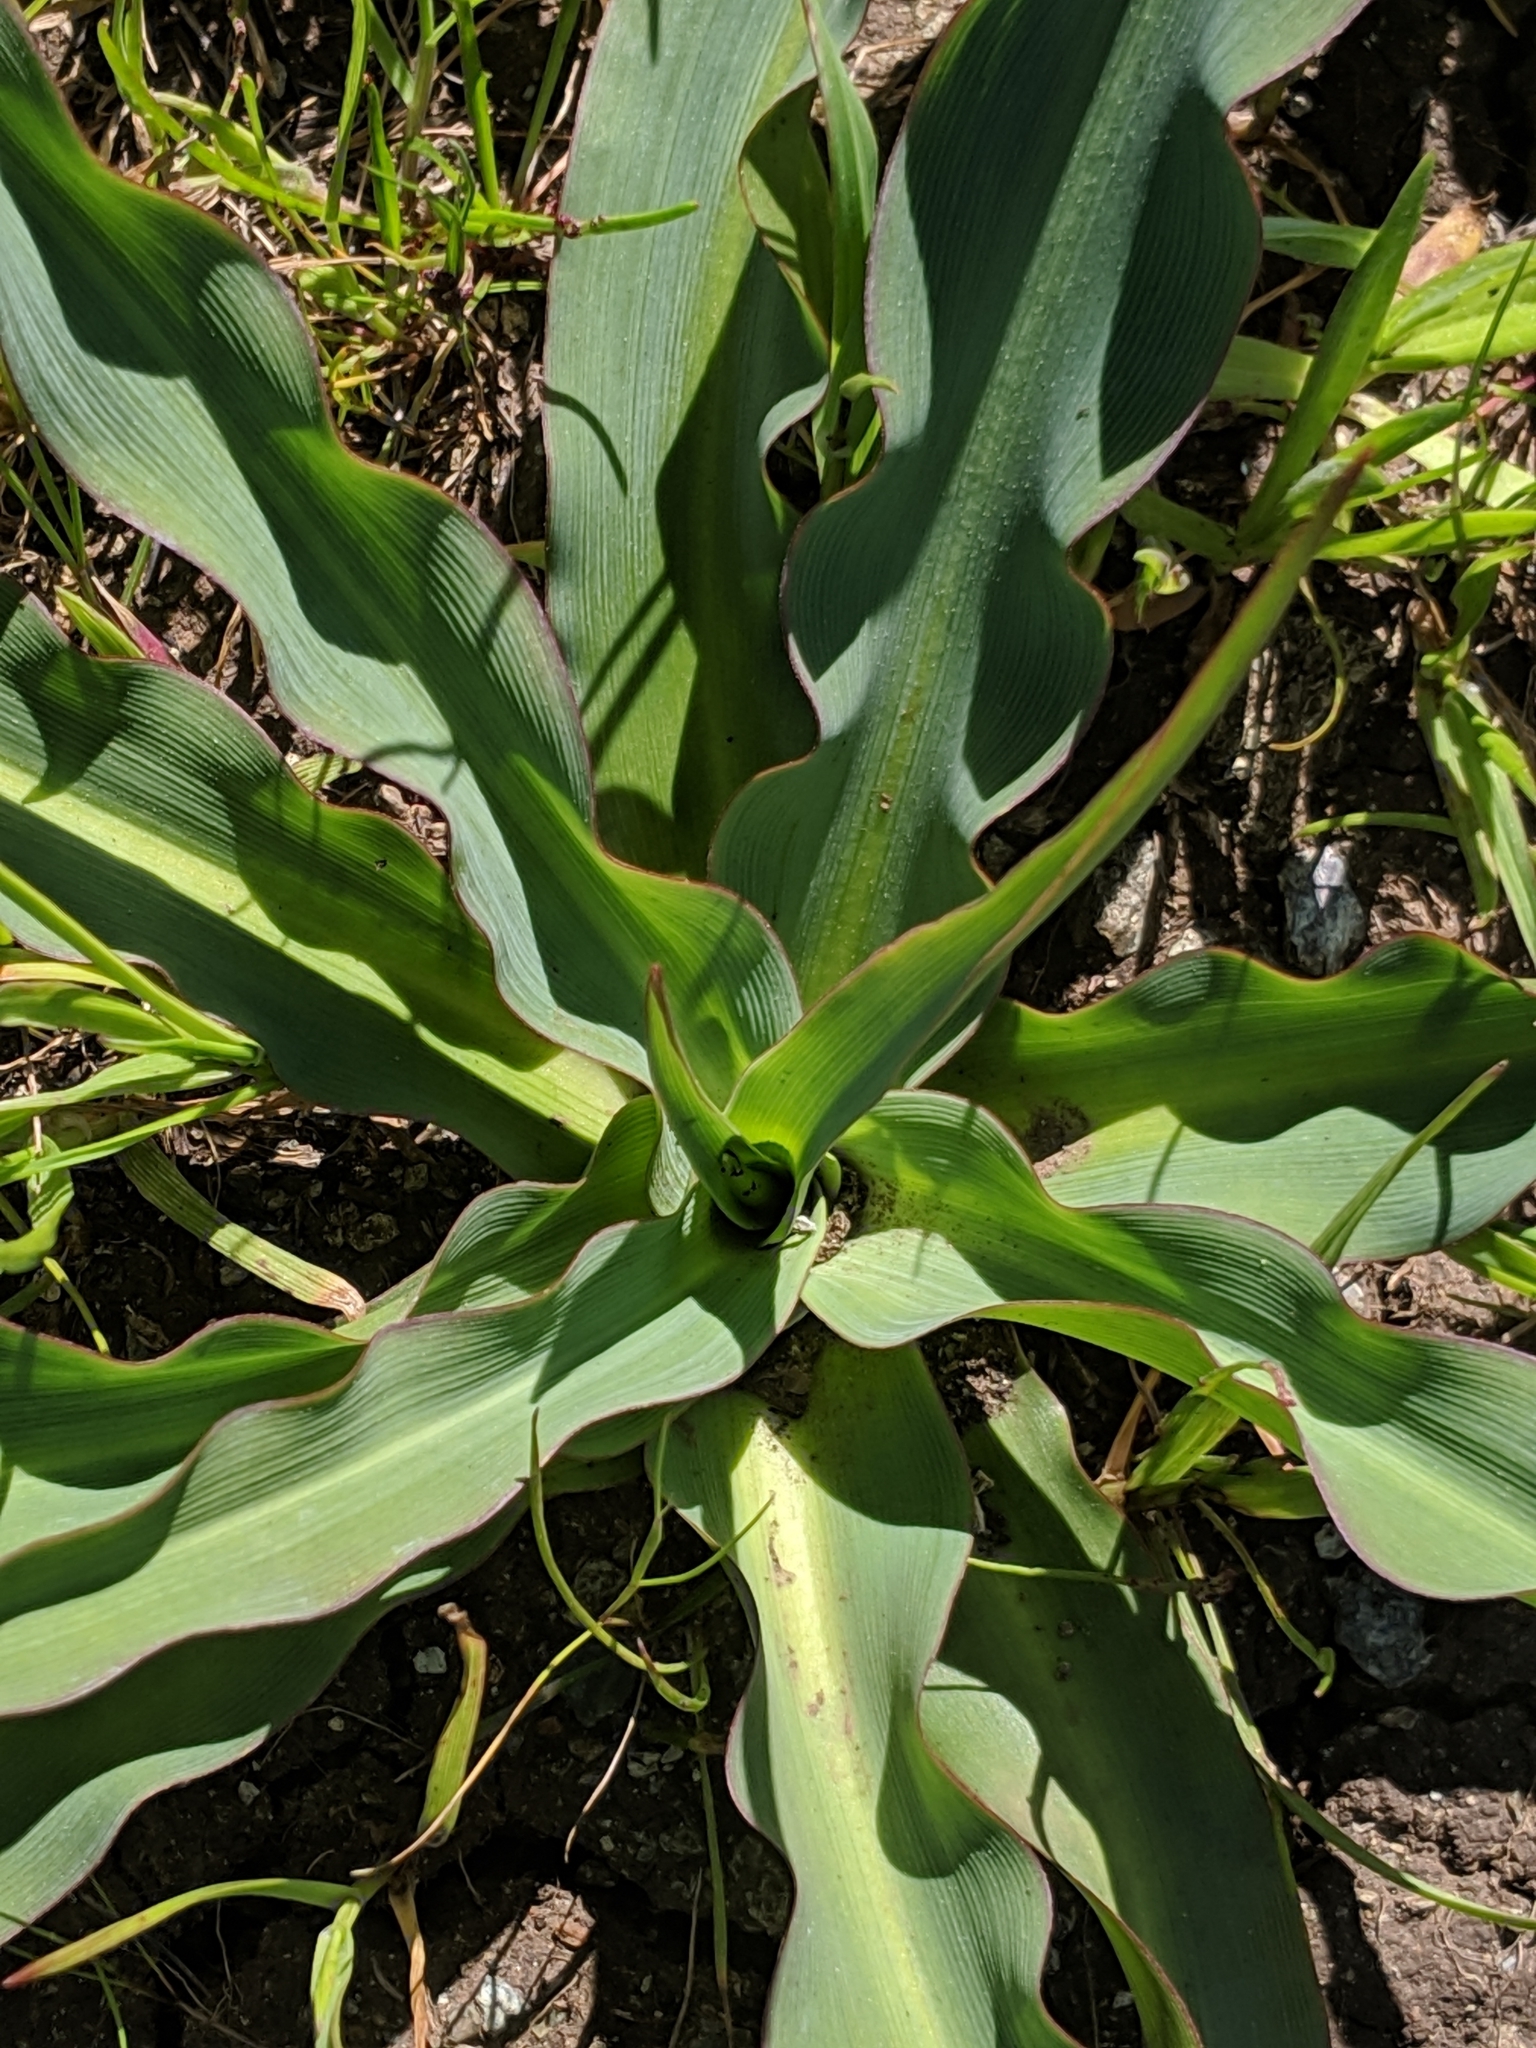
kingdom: Plantae
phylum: Tracheophyta
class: Liliopsida
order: Asparagales
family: Asparagaceae
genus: Chlorogalum
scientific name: Chlorogalum pomeridianum
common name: Amole
